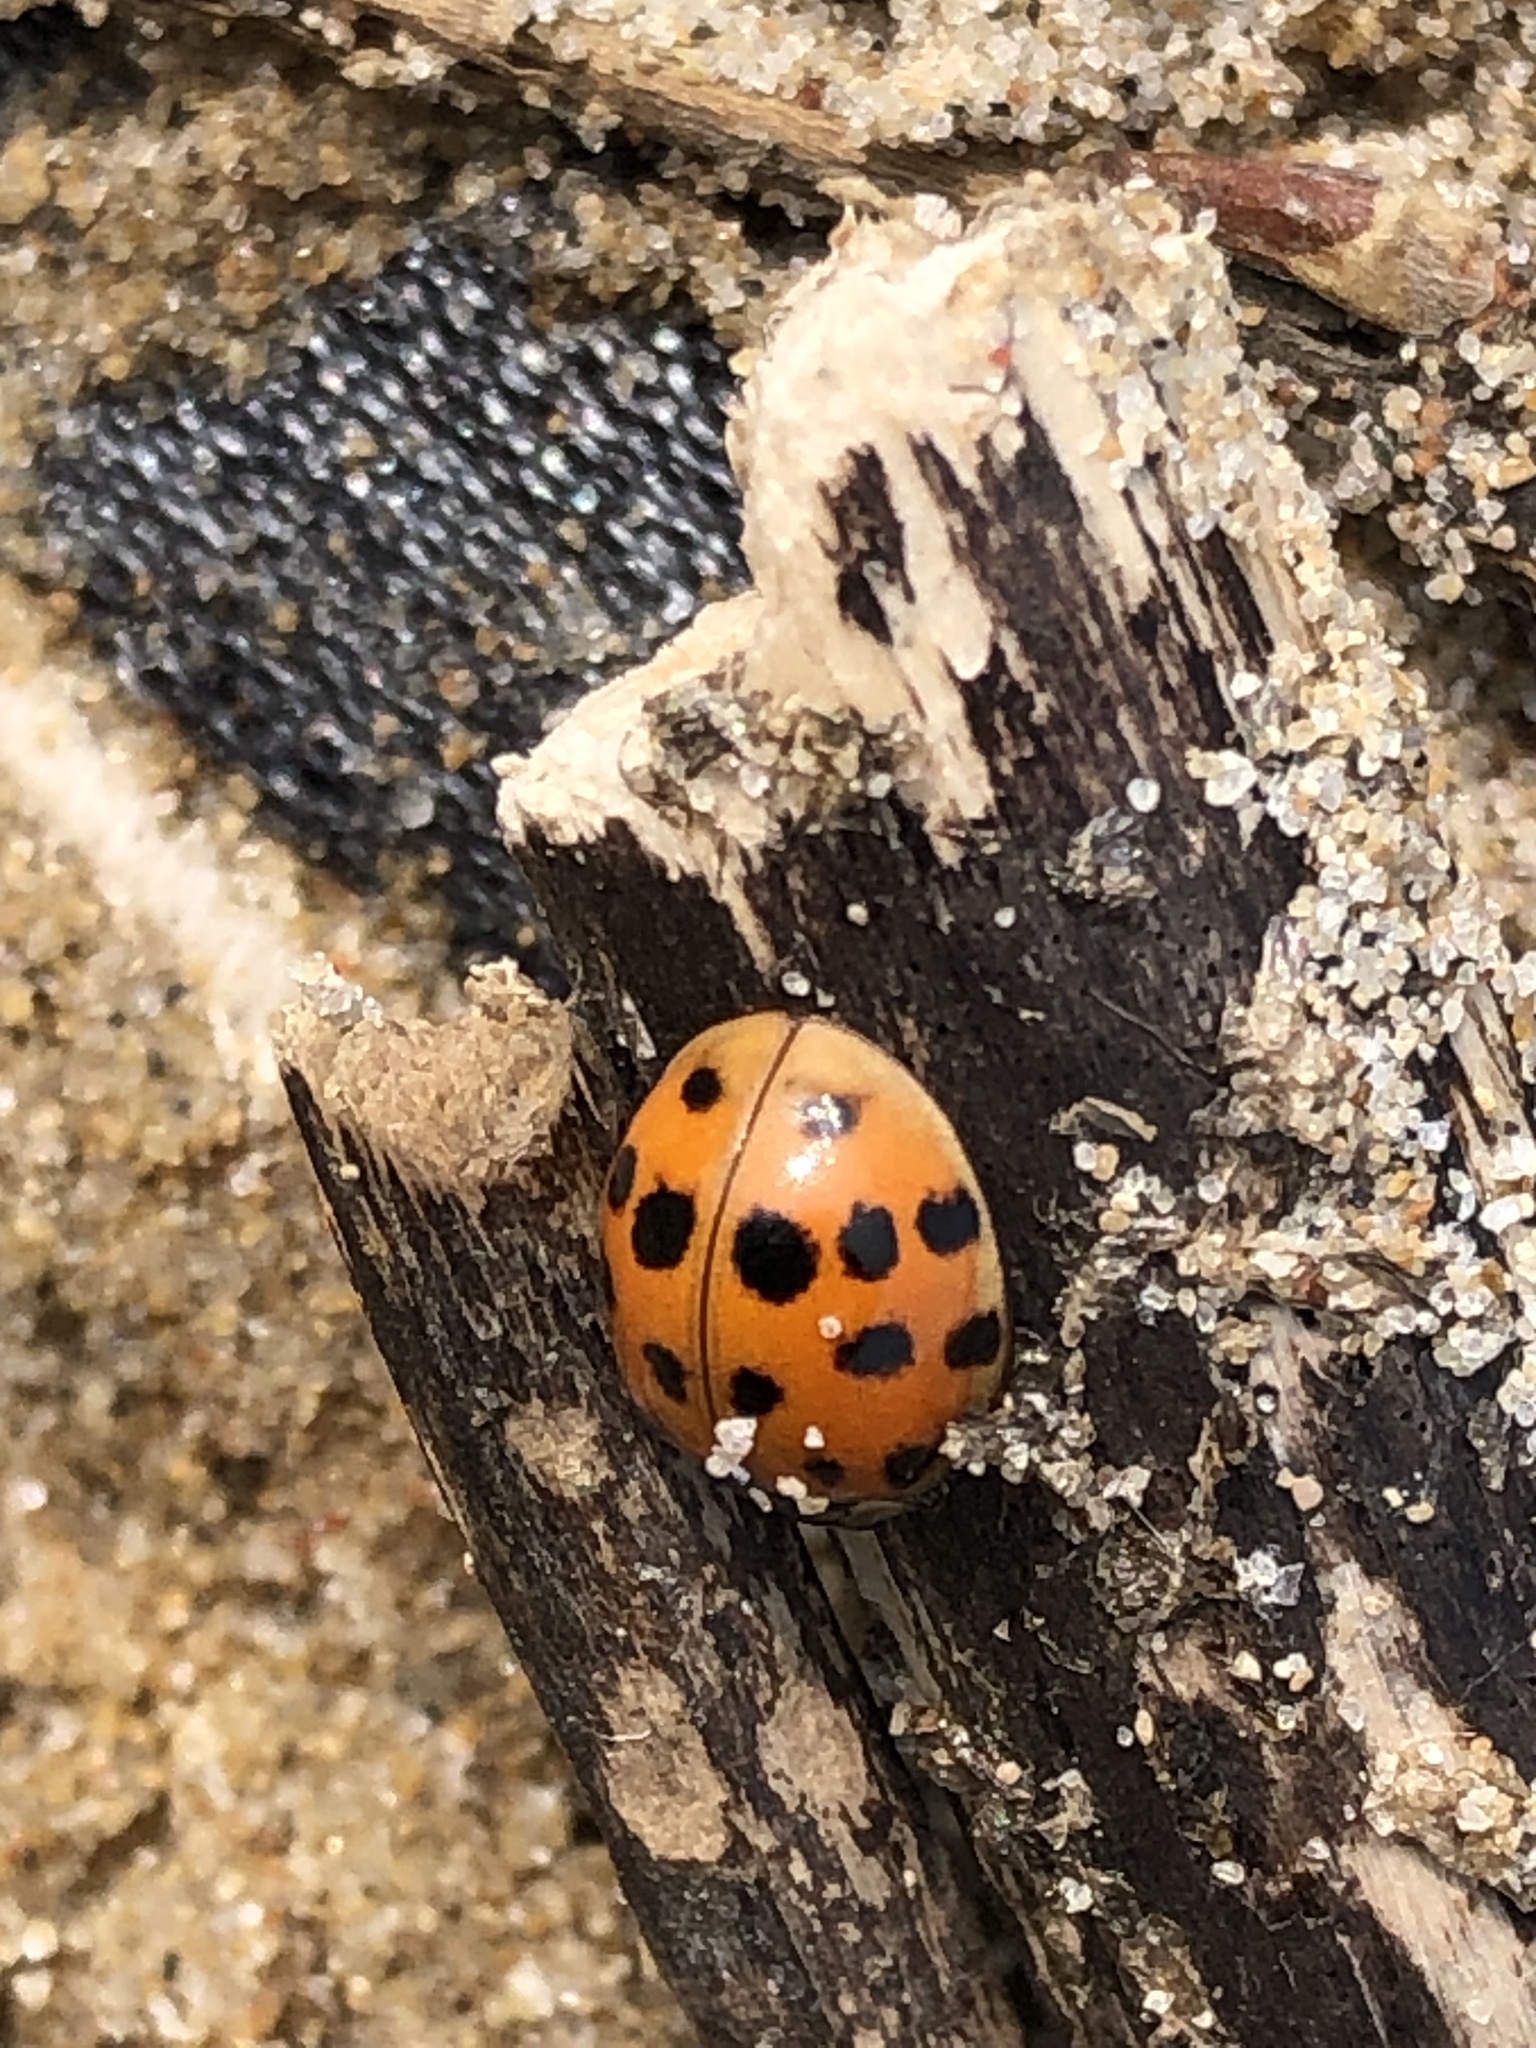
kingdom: Animalia
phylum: Arthropoda
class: Insecta
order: Coleoptera
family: Coccinellidae
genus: Harmonia
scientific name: Harmonia axyridis
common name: Harlequin ladybird
